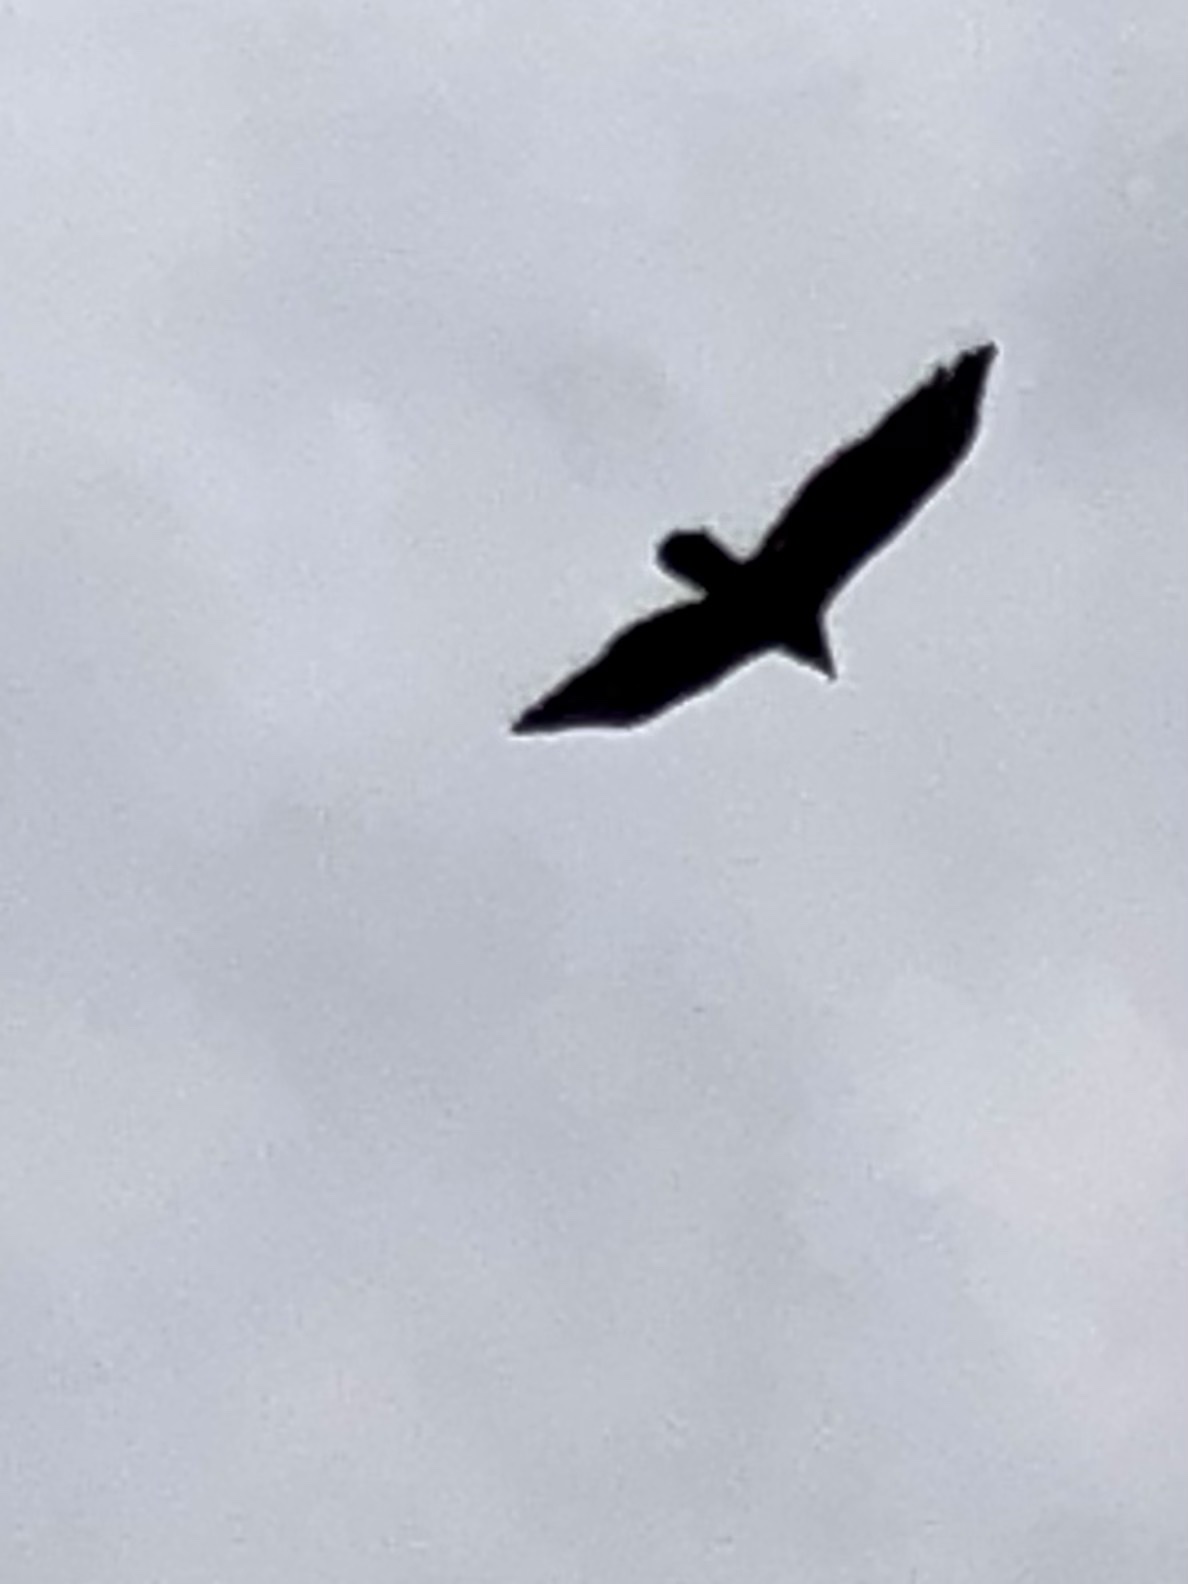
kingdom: Animalia
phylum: Chordata
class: Aves
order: Accipitriformes
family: Cathartidae
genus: Cathartes
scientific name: Cathartes aura
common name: Turkey vulture
